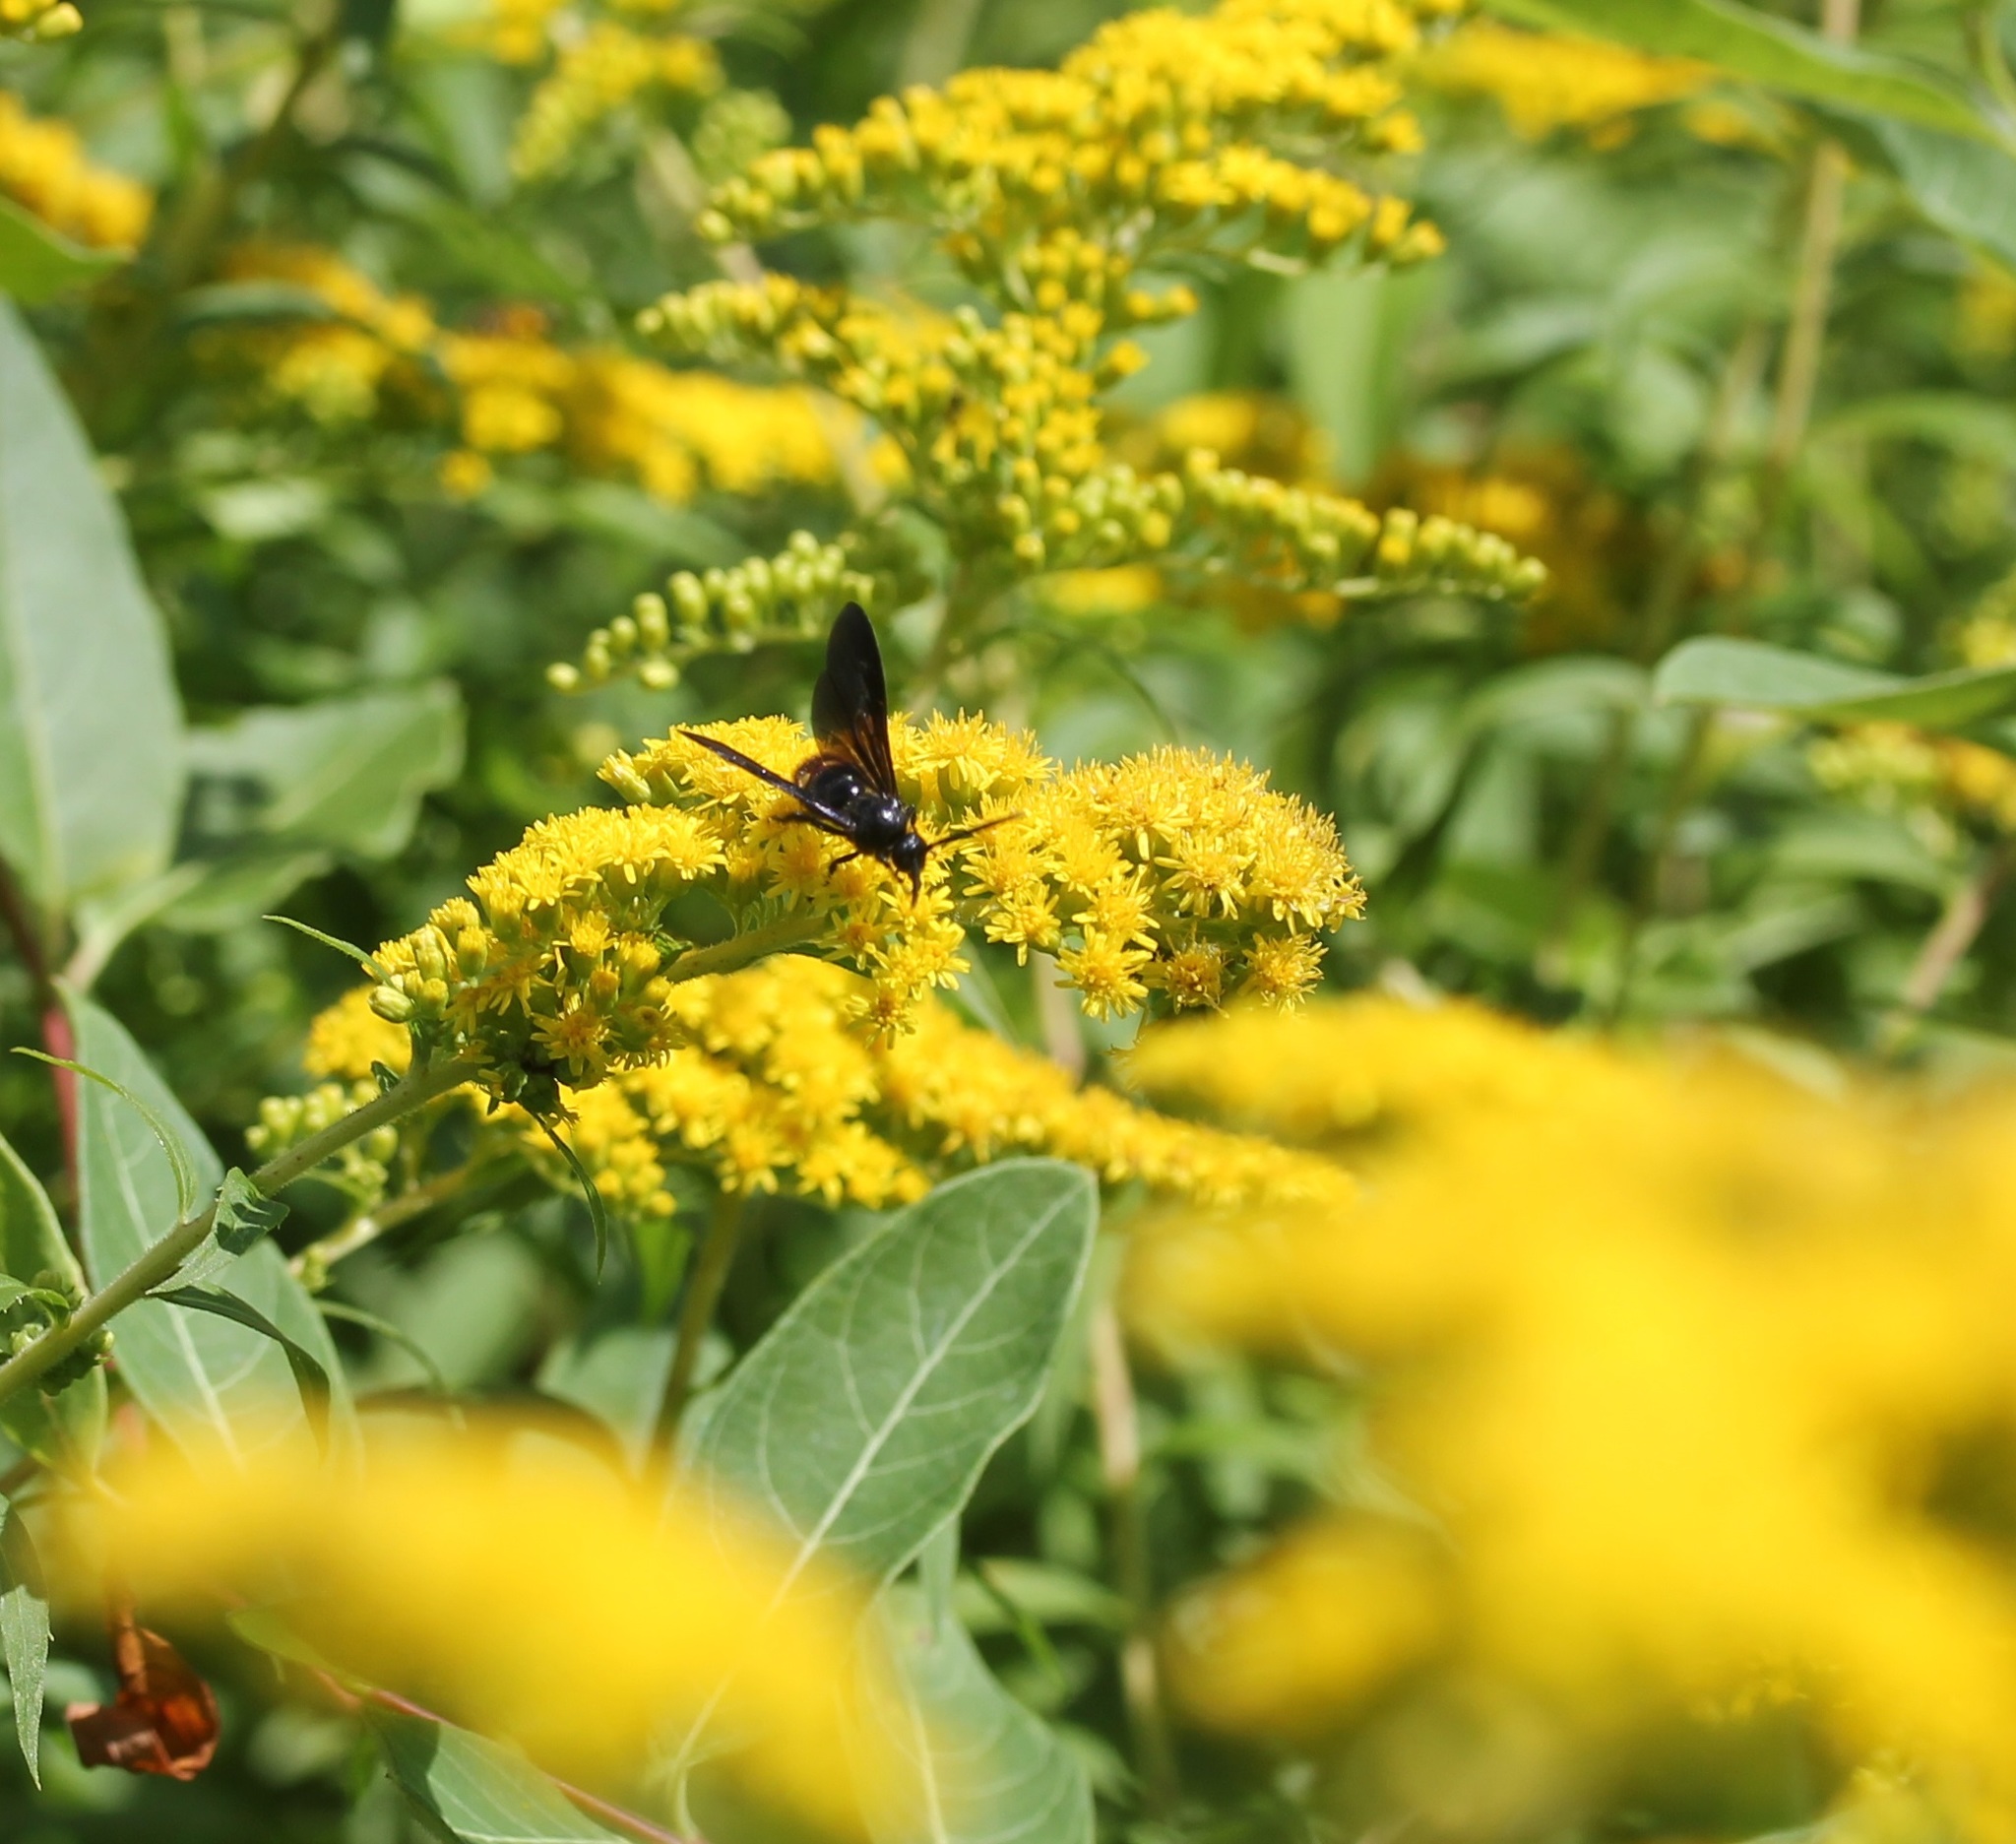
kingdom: Animalia
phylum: Arthropoda
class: Insecta
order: Hymenoptera
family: Scoliidae
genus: Scolia
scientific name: Scolia dubia
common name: Blue-winged scoliid wasp
